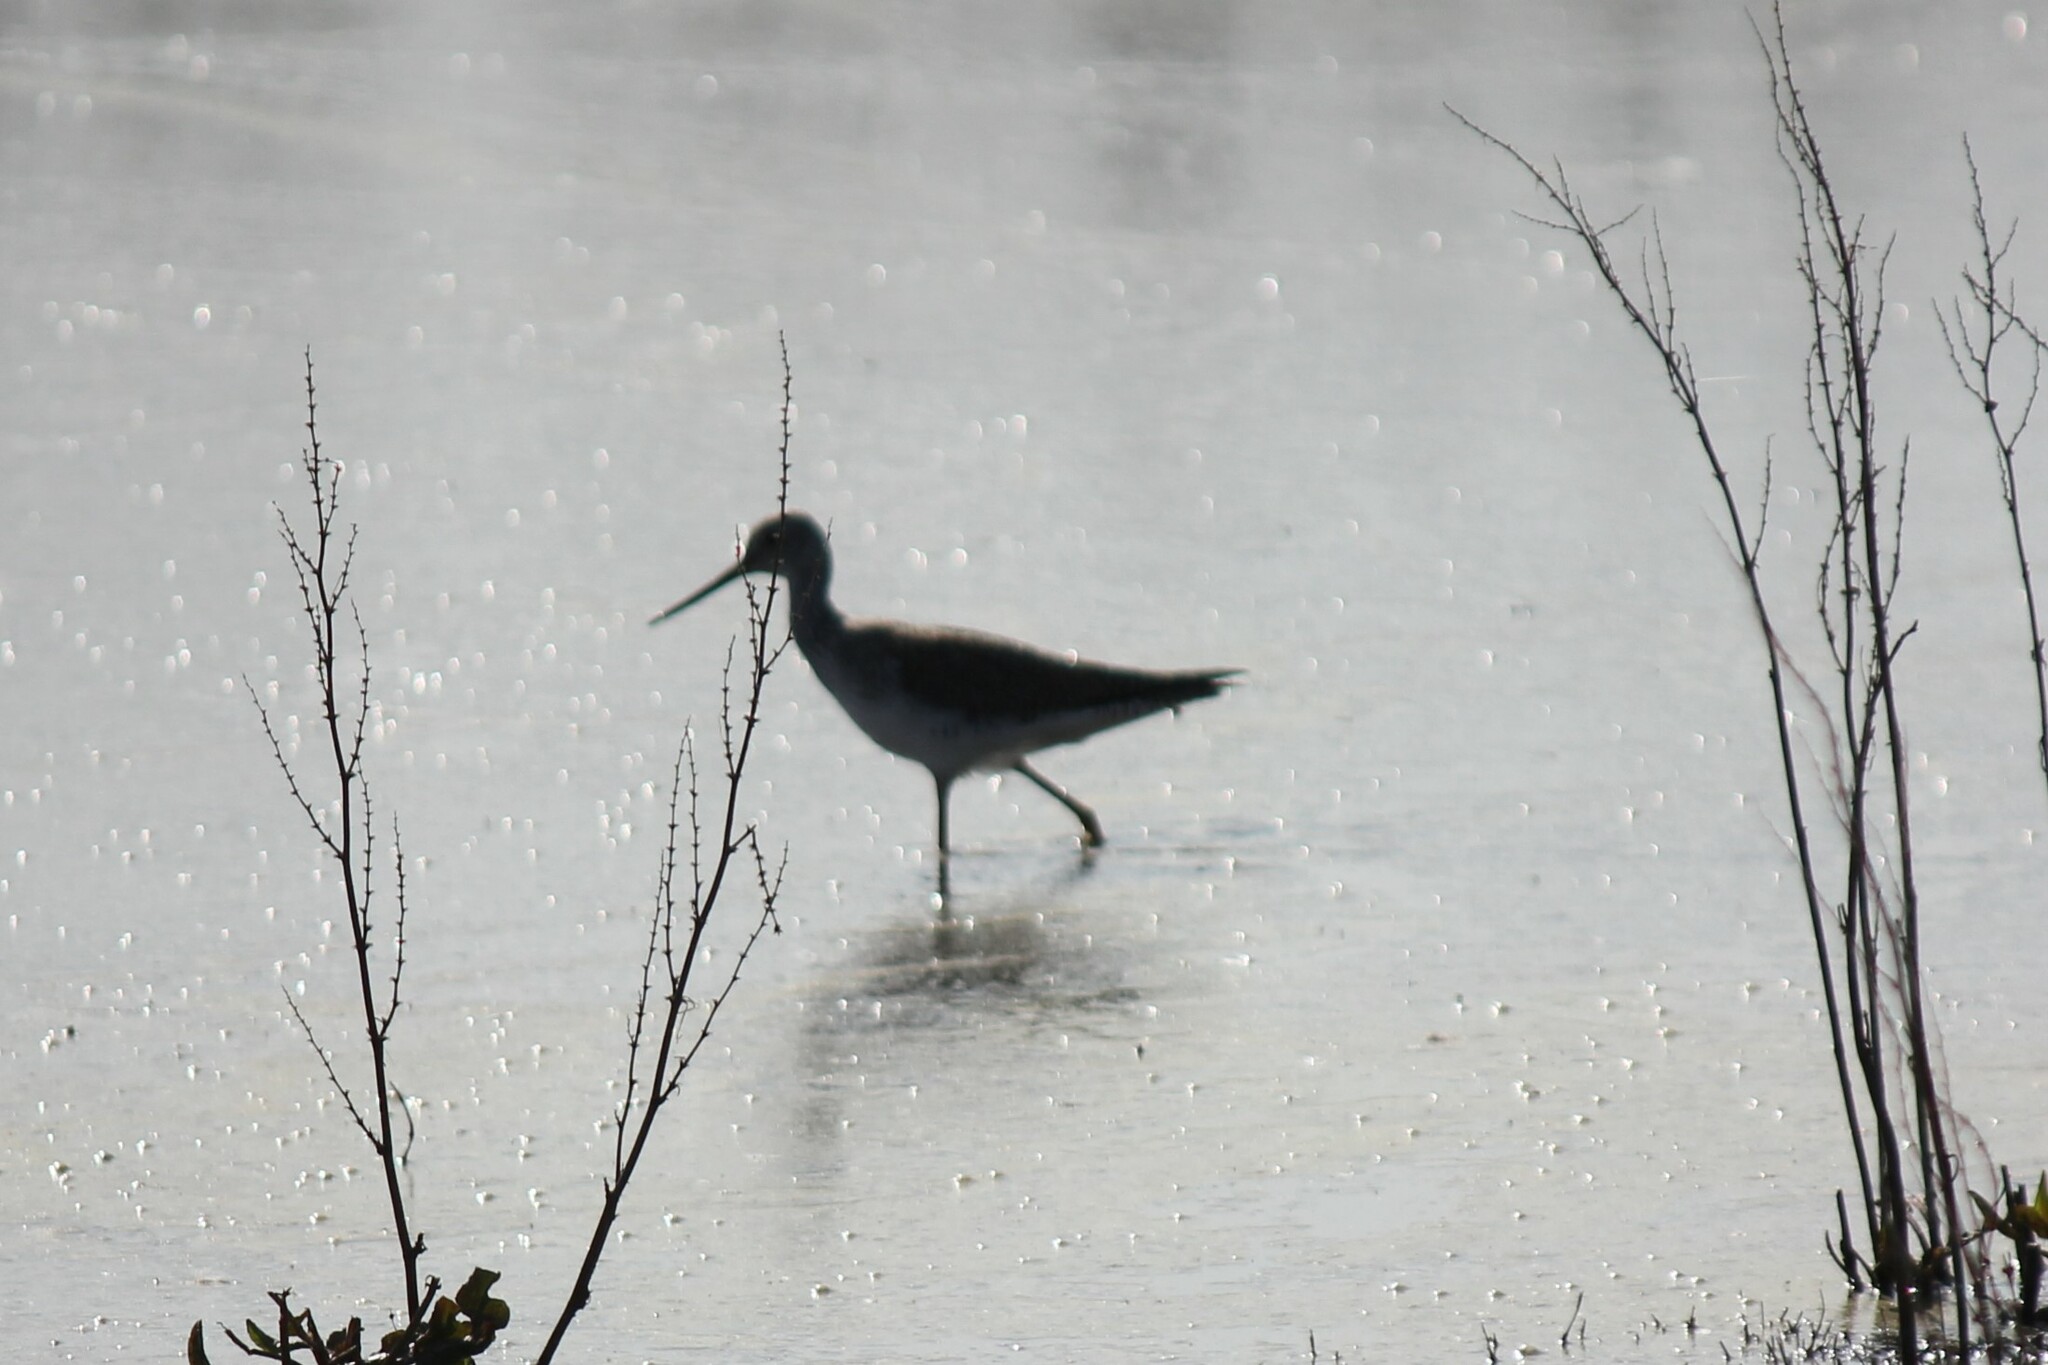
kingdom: Animalia
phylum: Chordata
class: Aves
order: Charadriiformes
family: Scolopacidae
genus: Tringa
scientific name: Tringa melanoleuca
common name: Greater yellowlegs
